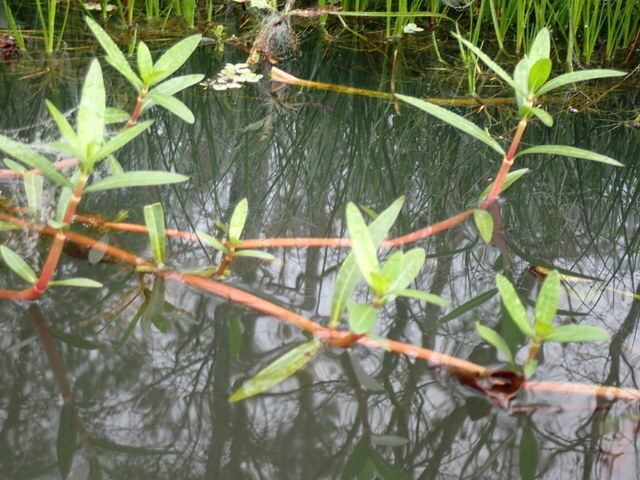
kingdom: Plantae
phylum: Tracheophyta
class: Magnoliopsida
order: Caryophyllales
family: Amaranthaceae
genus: Alternanthera
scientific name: Alternanthera philoxeroides
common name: Alligatorweed
